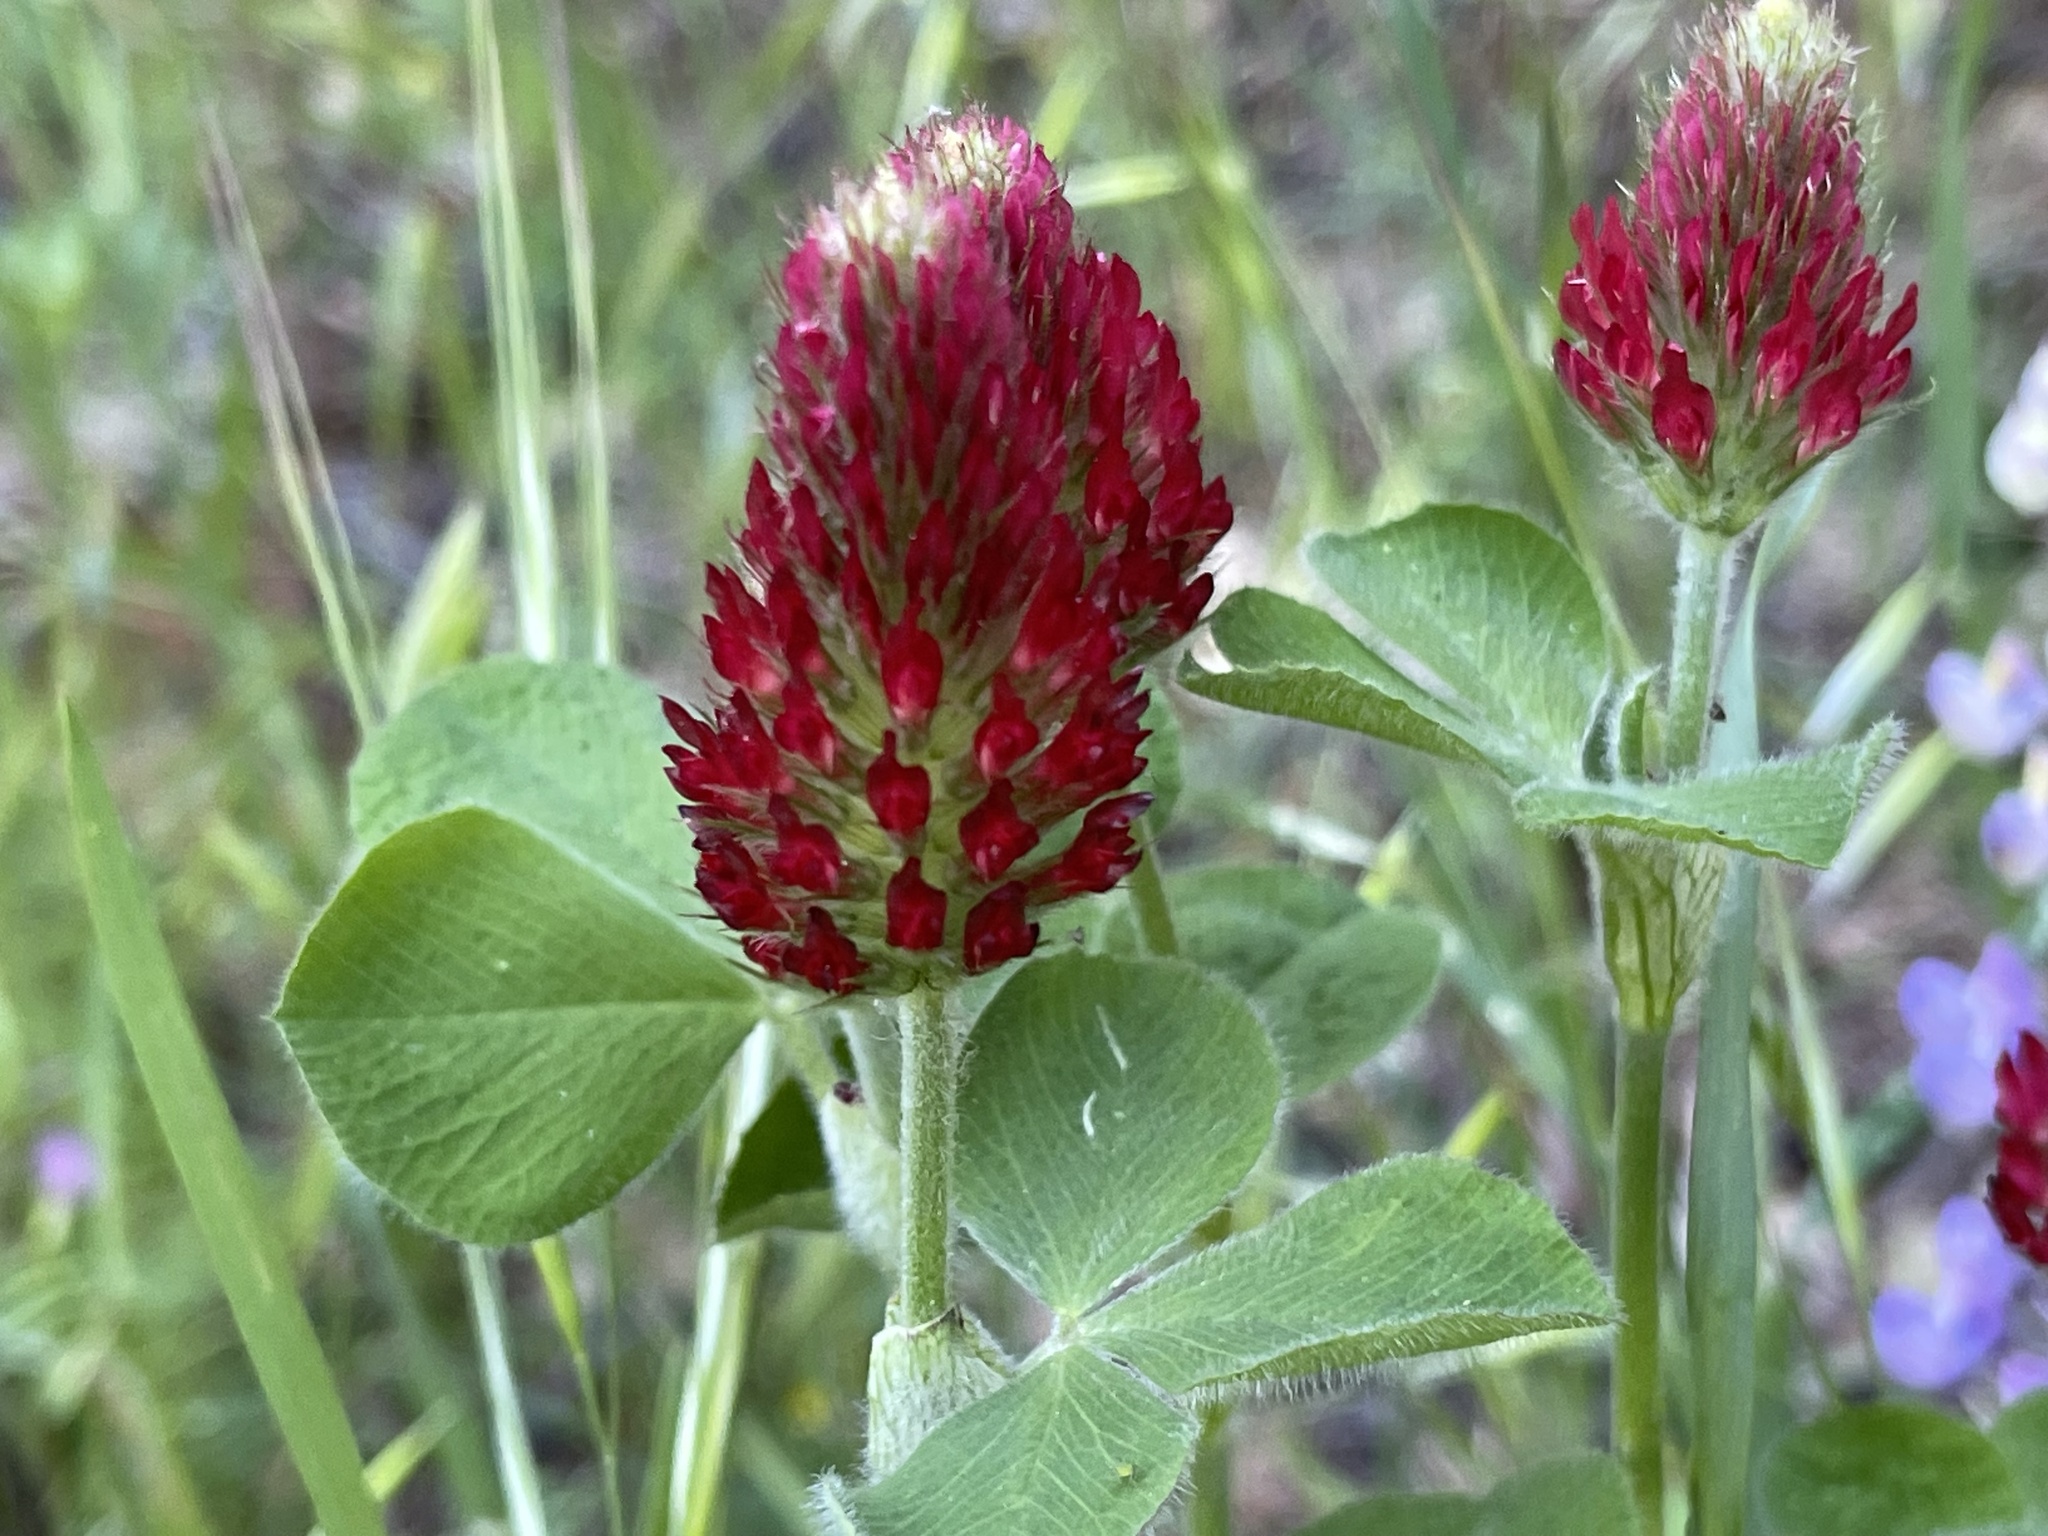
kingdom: Plantae
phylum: Tracheophyta
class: Magnoliopsida
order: Fabales
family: Fabaceae
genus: Trifolium
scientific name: Trifolium incarnatum
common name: Crimson clover
